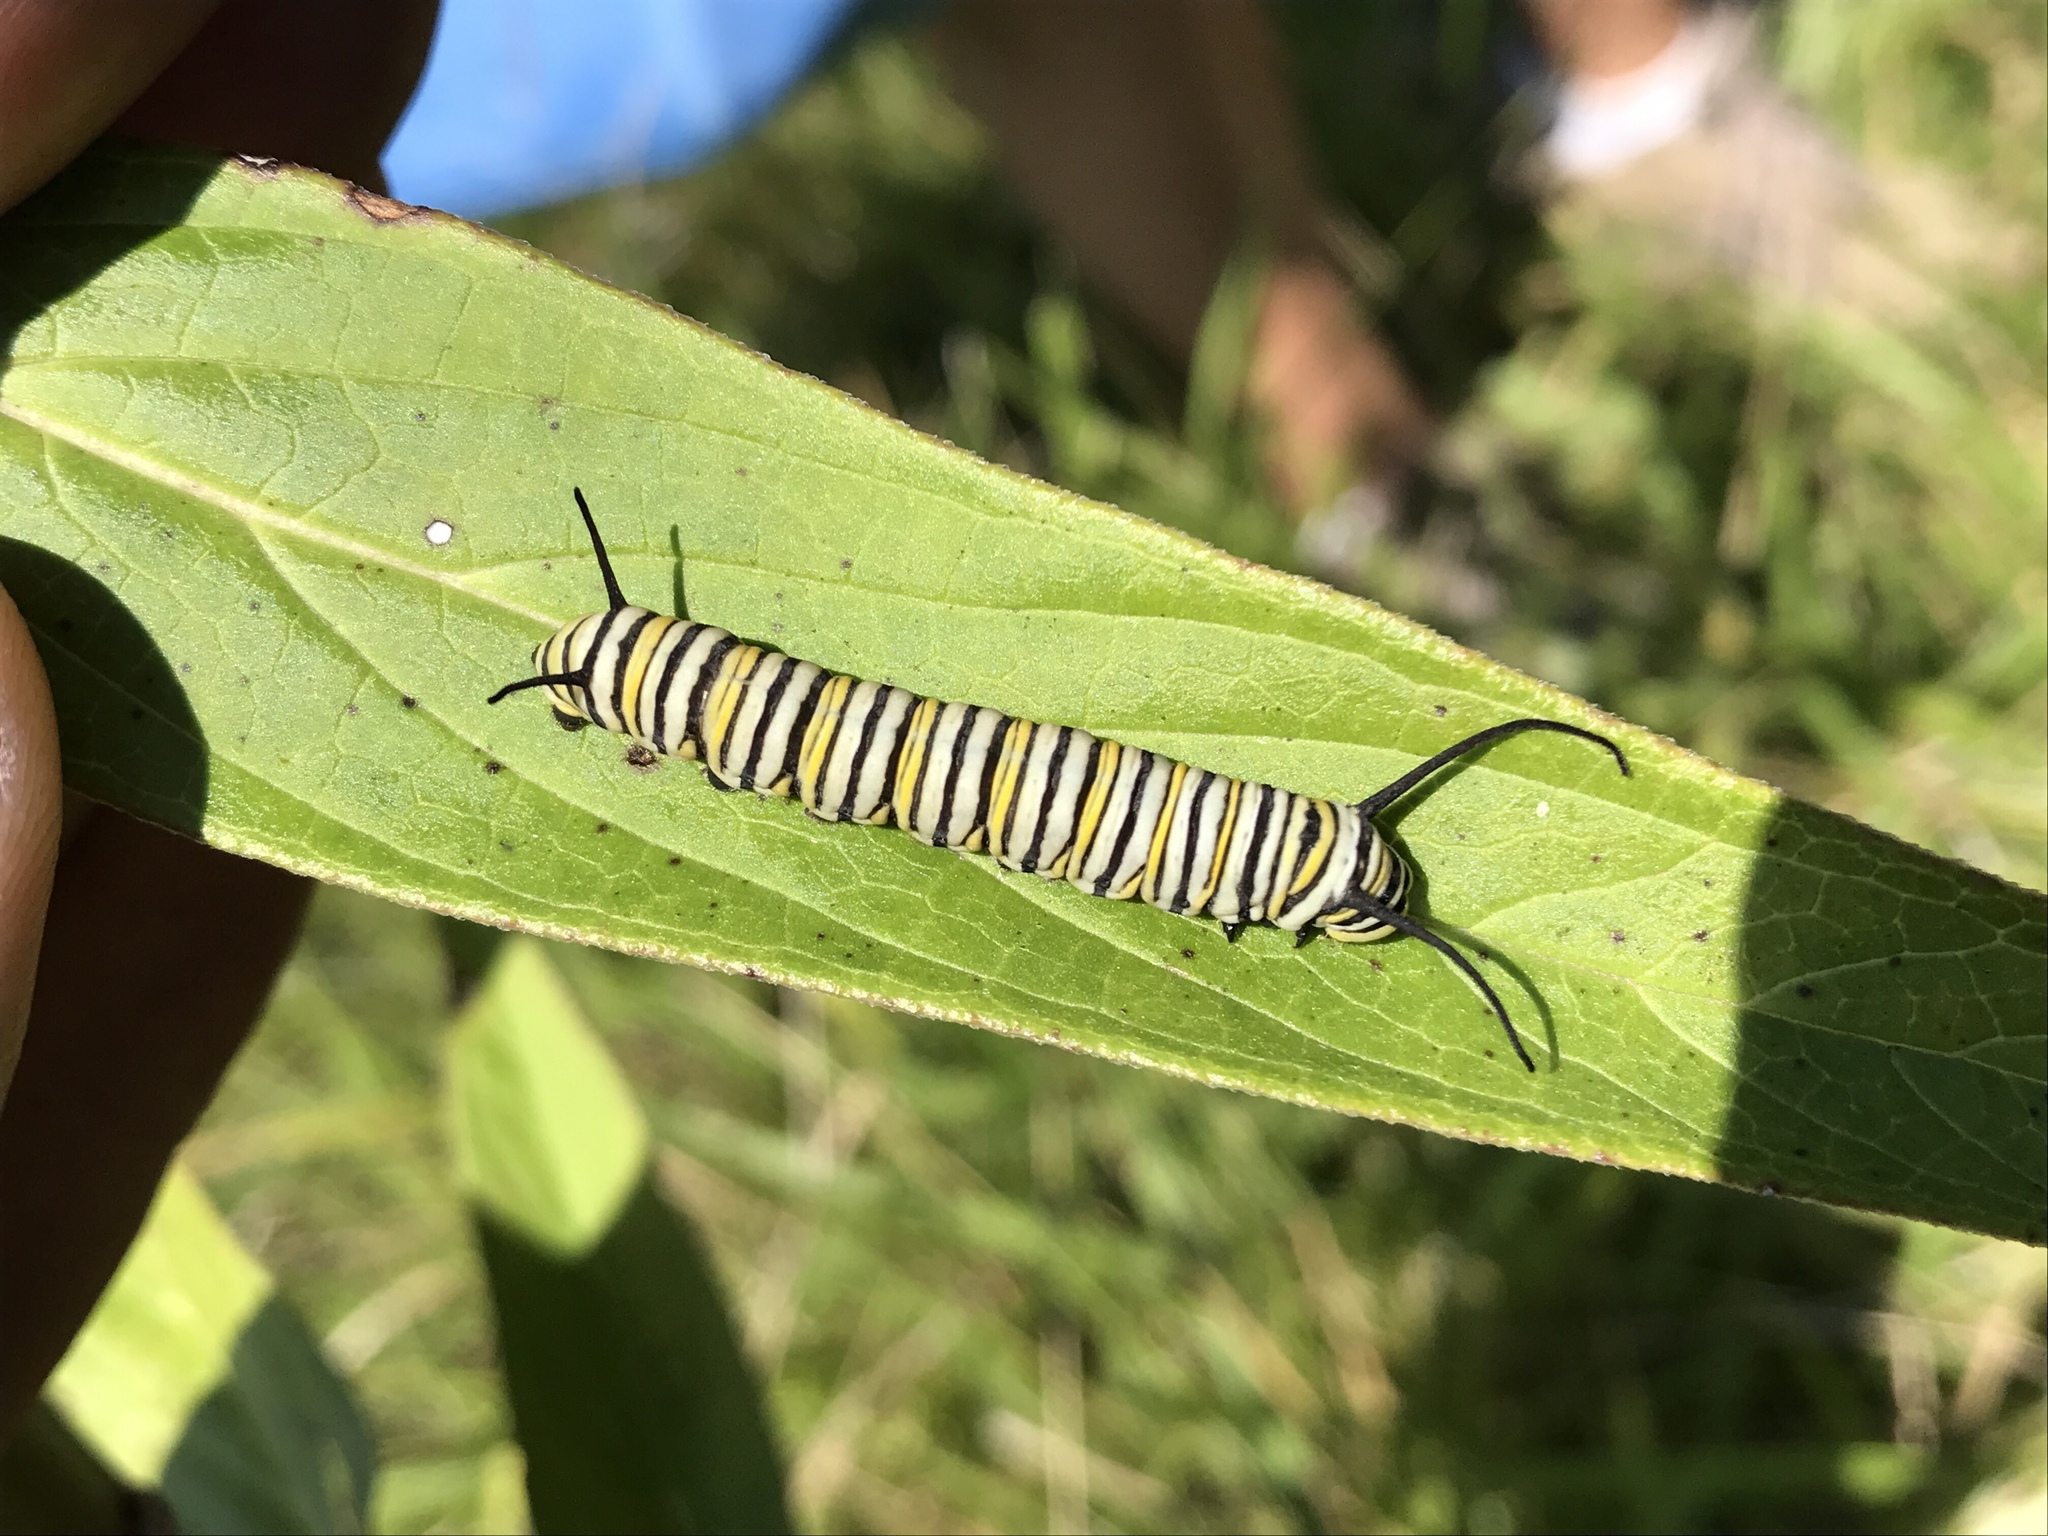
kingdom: Animalia
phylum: Arthropoda
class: Insecta
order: Lepidoptera
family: Nymphalidae
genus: Danaus
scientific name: Danaus plexippus
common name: Monarch
